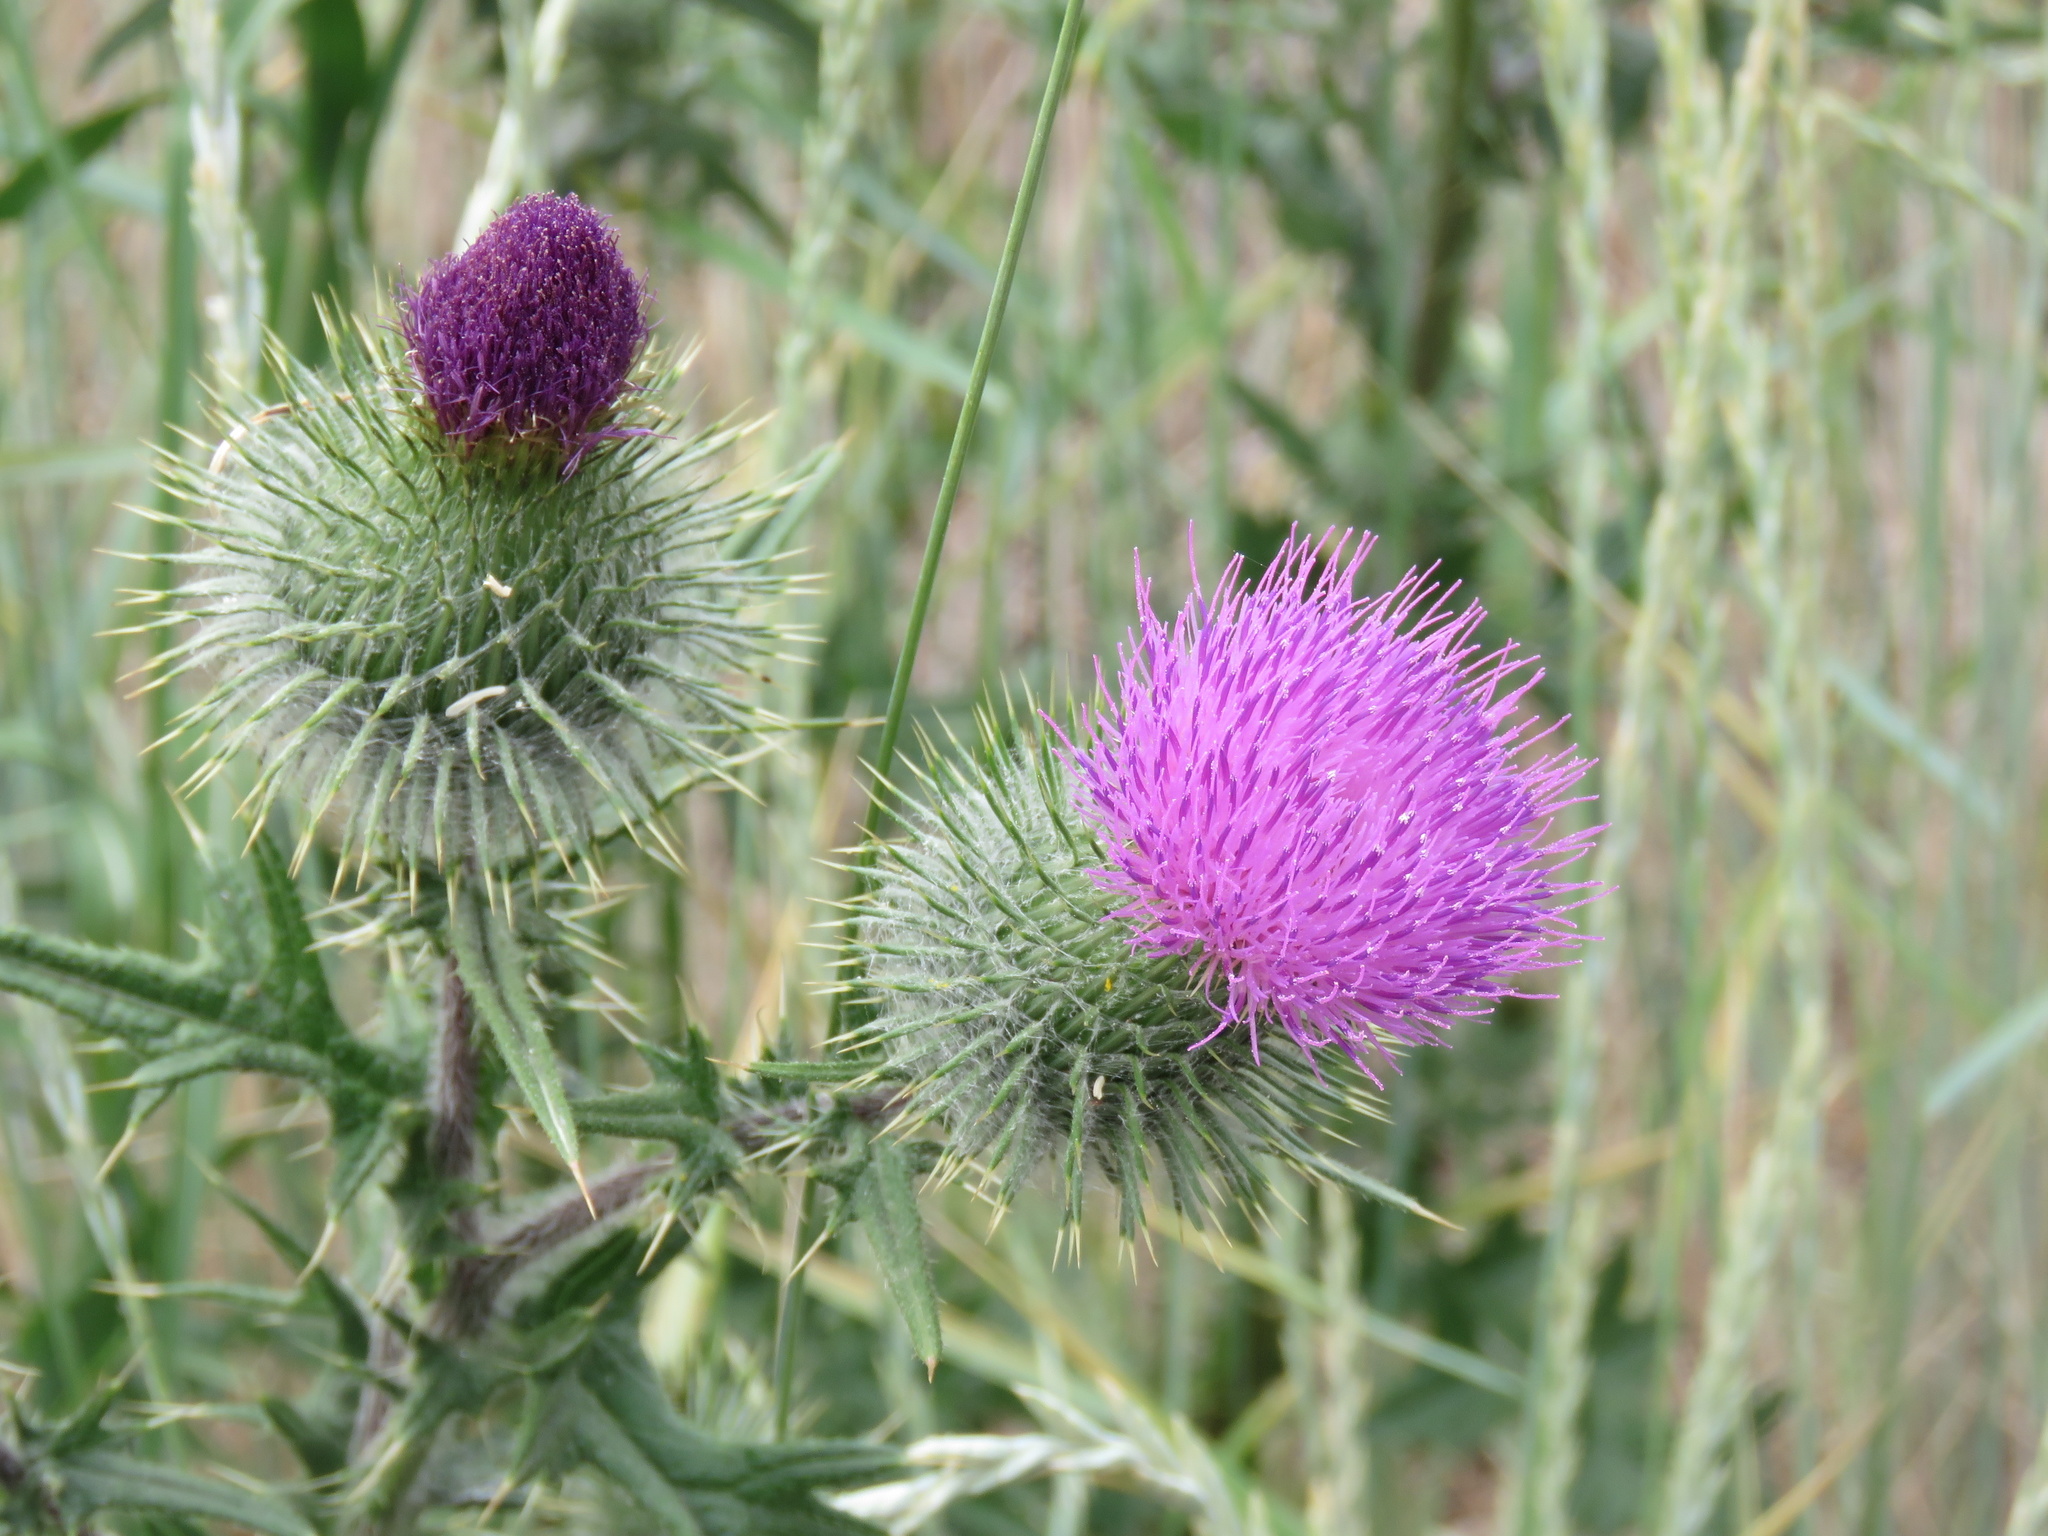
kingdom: Plantae
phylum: Tracheophyta
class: Magnoliopsida
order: Asterales
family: Asteraceae
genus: Cirsium
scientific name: Cirsium vulgare
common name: Bull thistle
